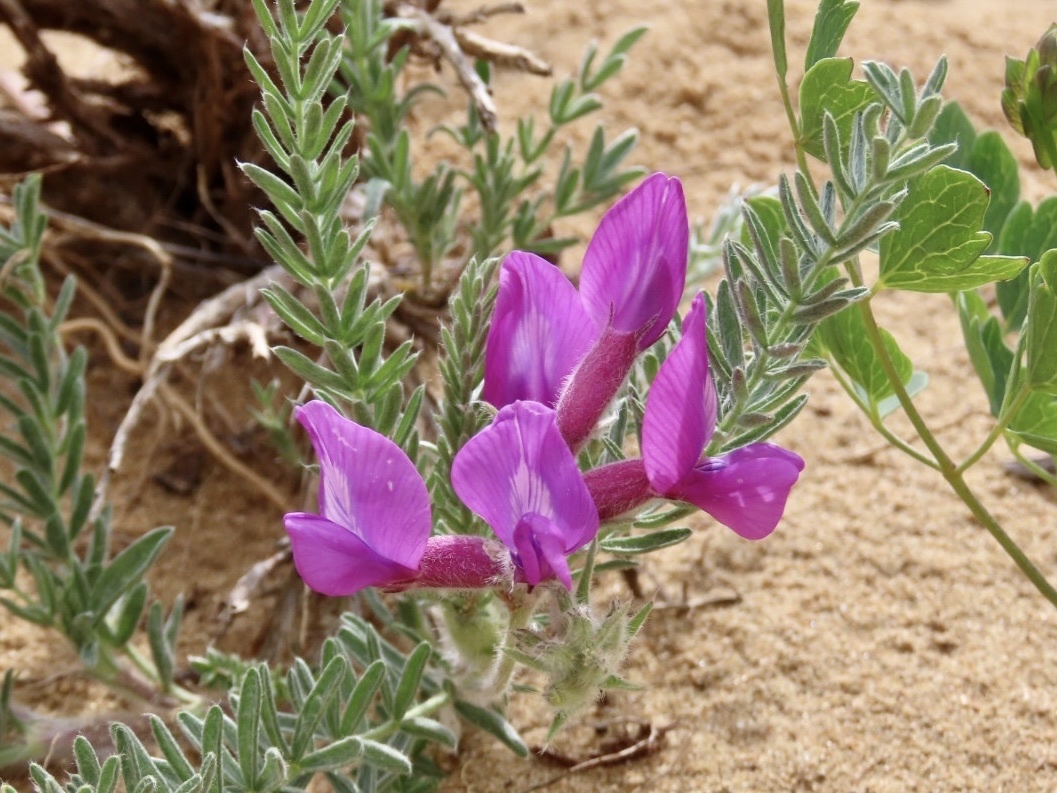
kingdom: Plantae
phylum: Tracheophyta
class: Magnoliopsida
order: Fabales
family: Fabaceae
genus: Oxytropis
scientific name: Oxytropis lanata
